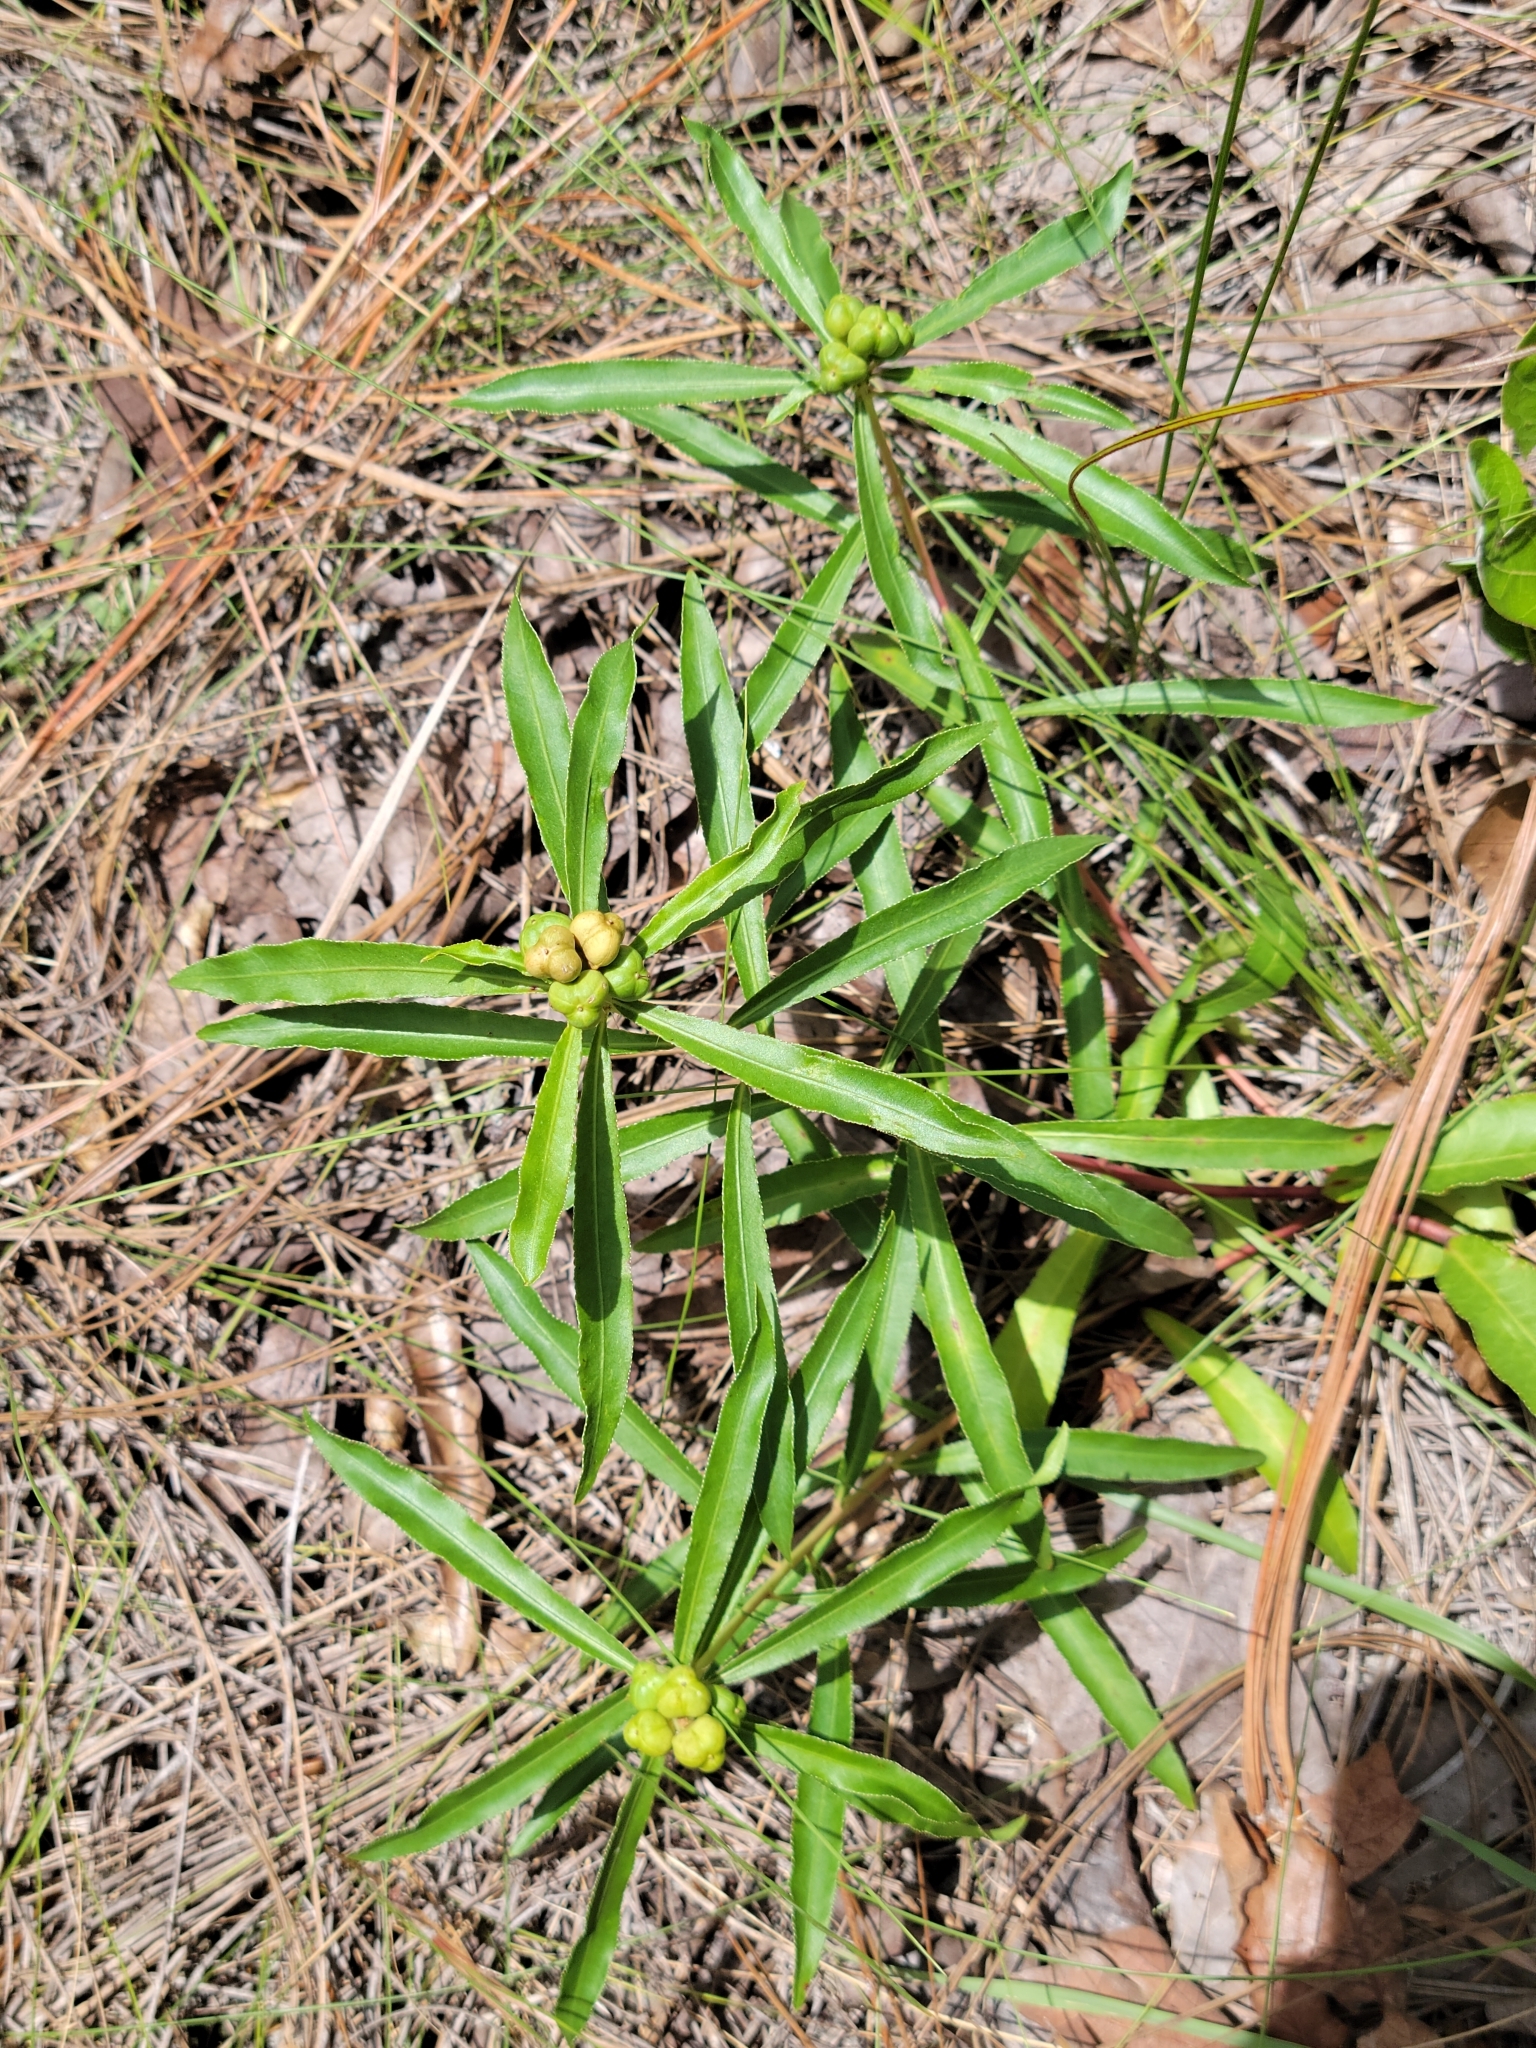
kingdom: Plantae
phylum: Tracheophyta
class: Magnoliopsida
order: Malpighiales
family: Euphorbiaceae
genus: Stillingia
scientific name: Stillingia sylvatica
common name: Queen's-delight
